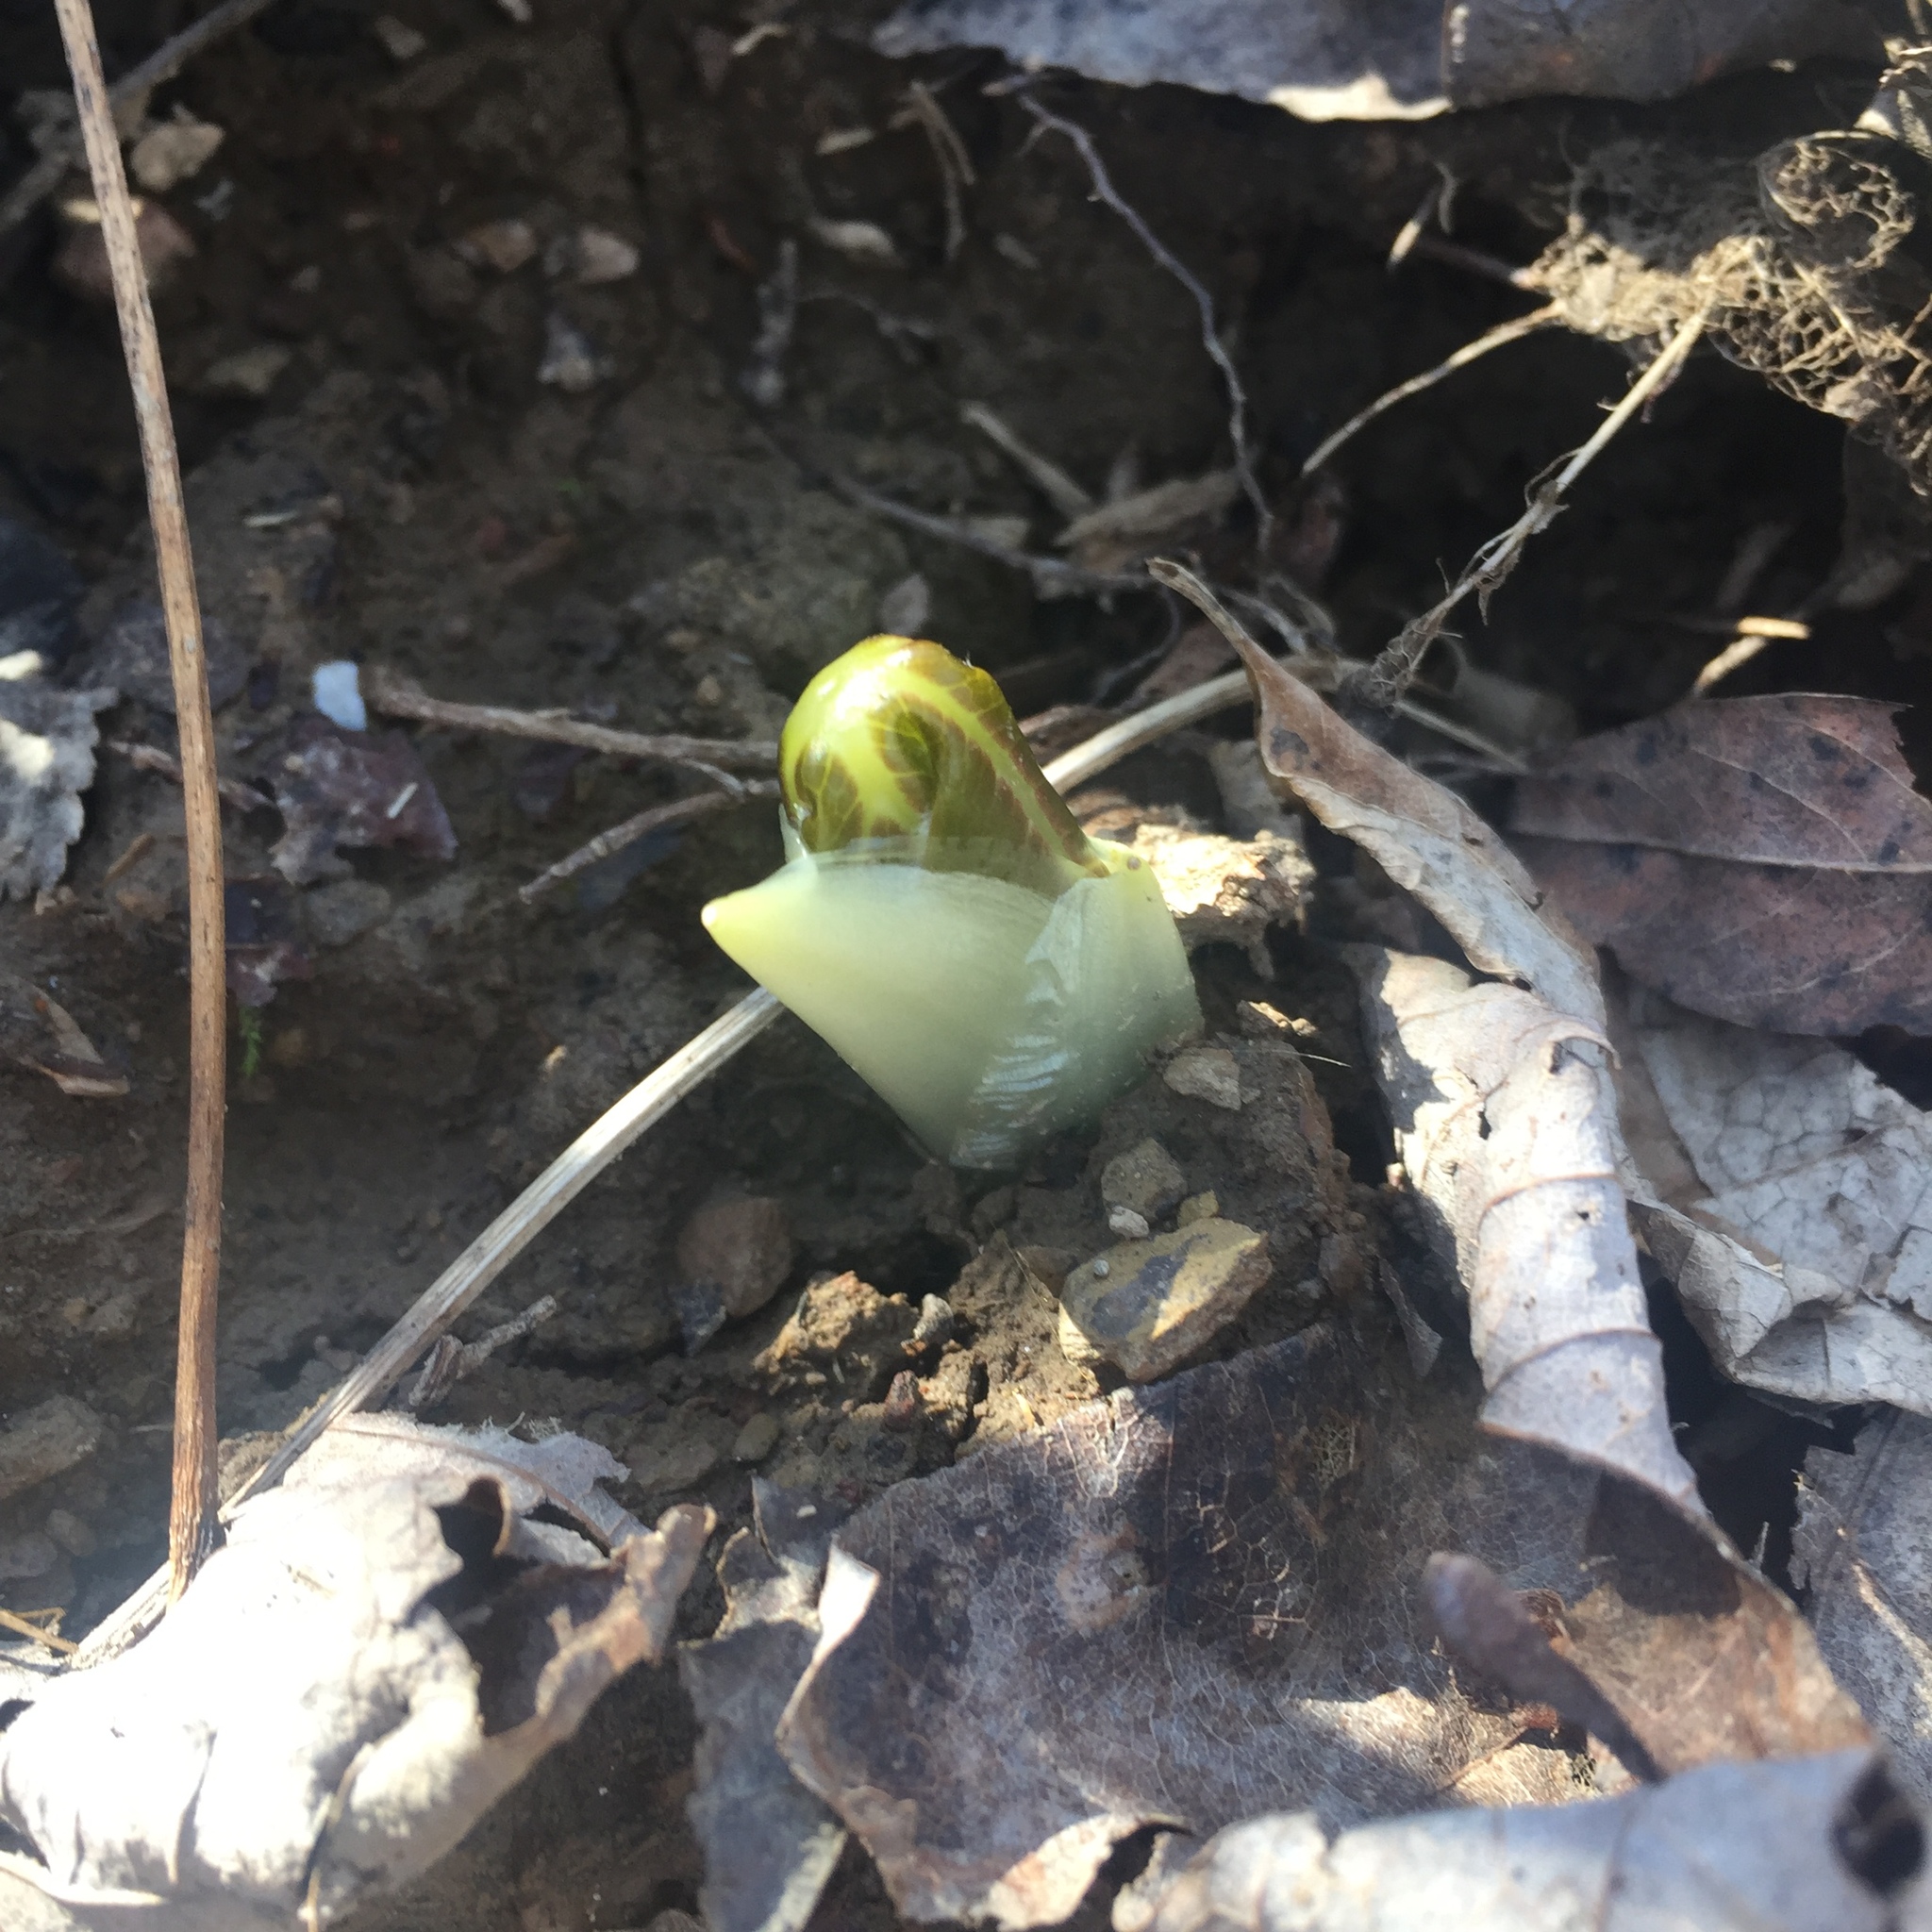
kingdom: Plantae
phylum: Tracheophyta
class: Magnoliopsida
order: Ranunculales
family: Berberidaceae
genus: Podophyllum
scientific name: Podophyllum peltatum
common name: Wild mandrake
